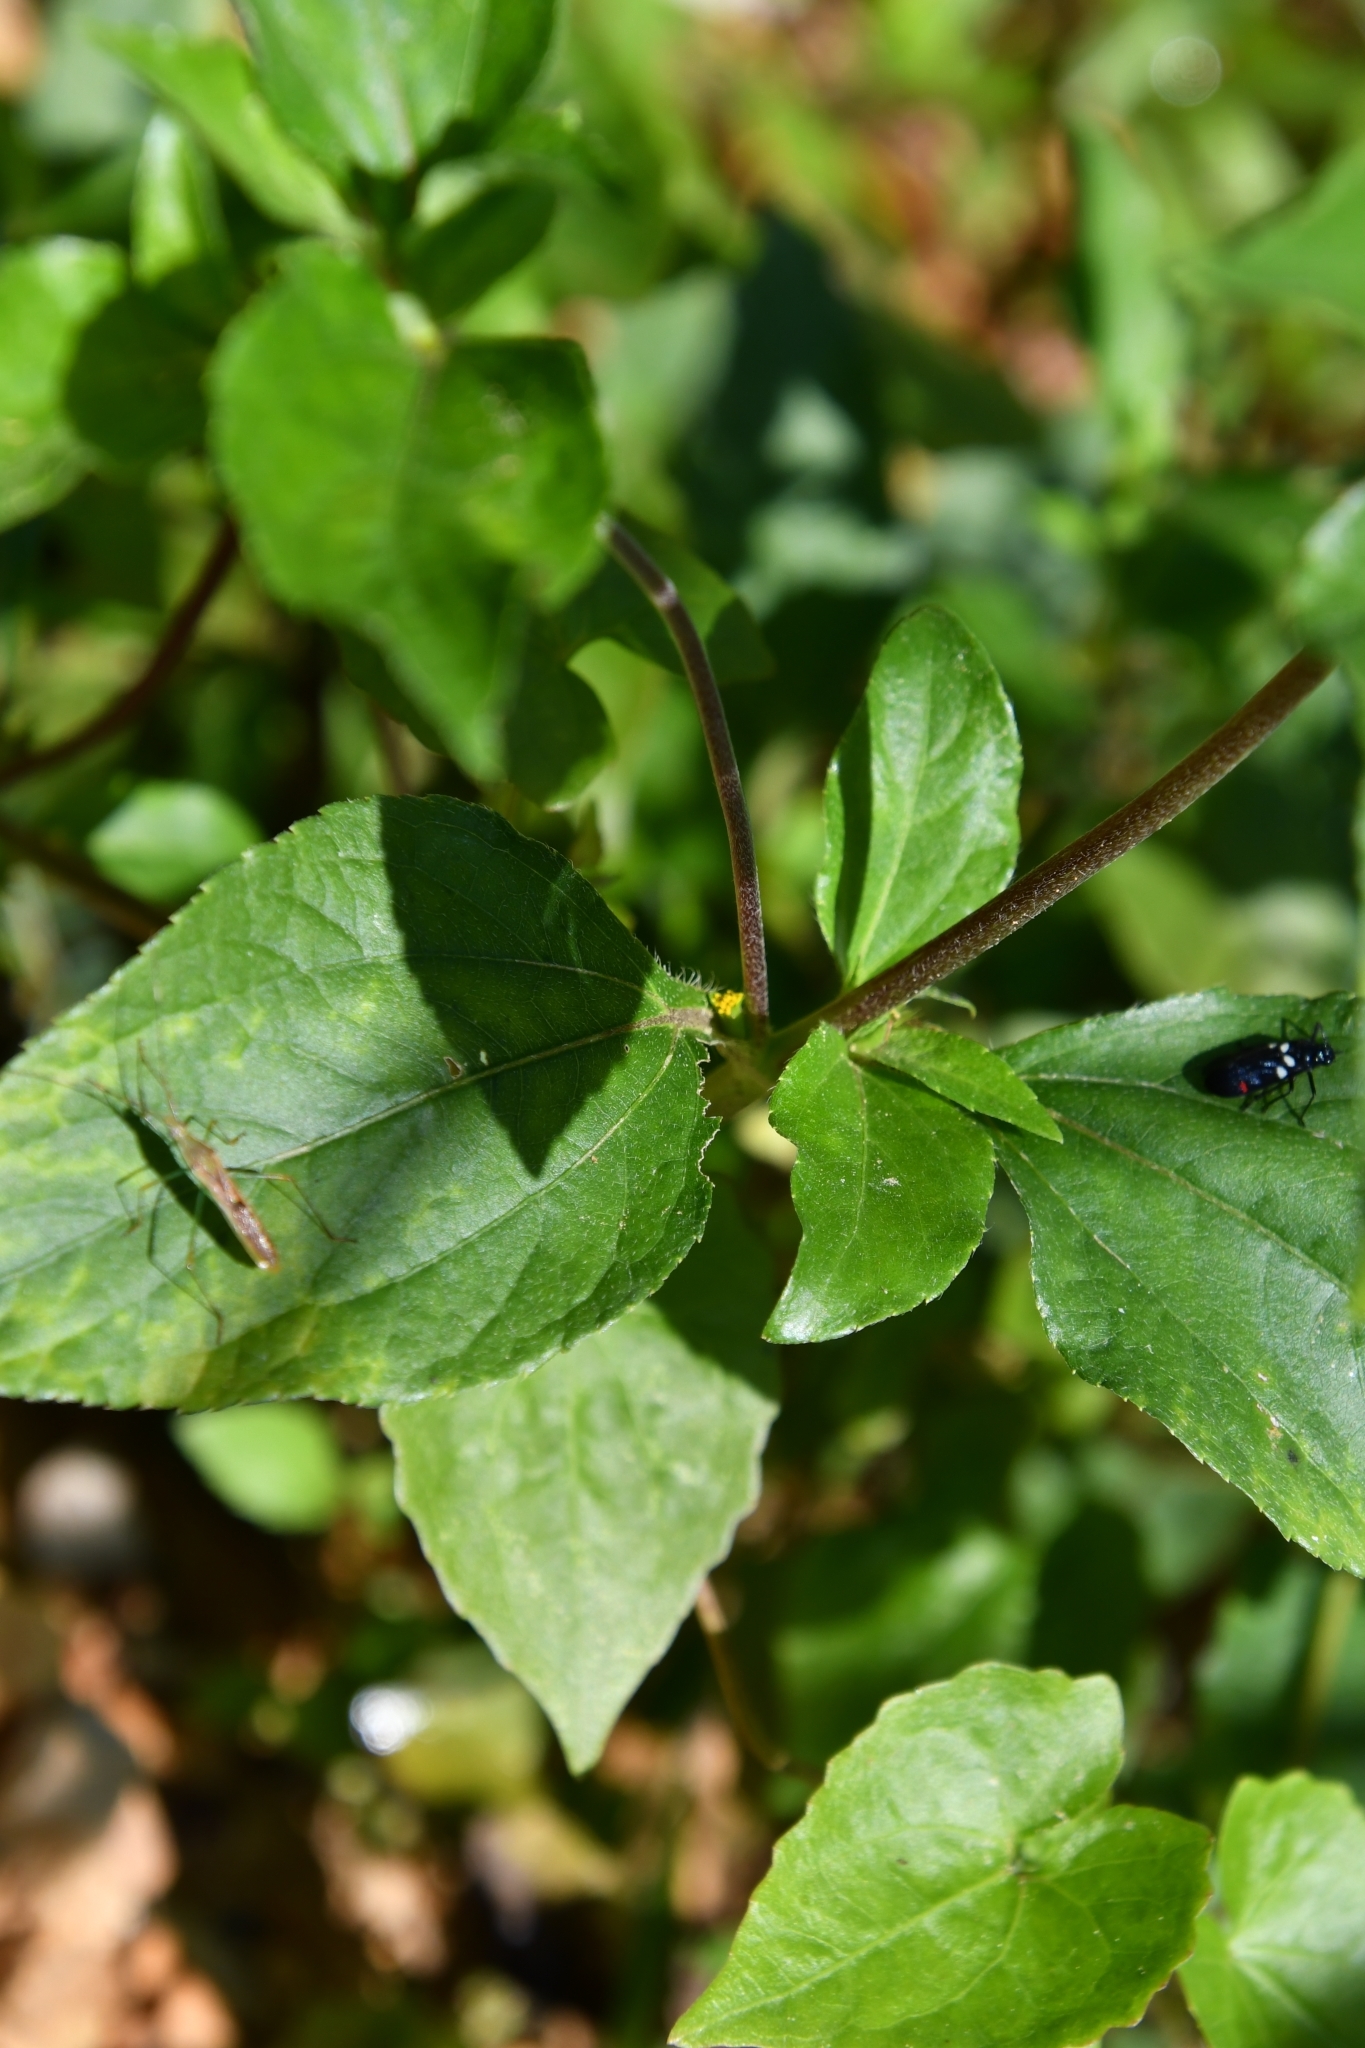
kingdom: Plantae
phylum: Tracheophyta
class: Magnoliopsida
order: Asterales
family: Asteraceae
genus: Synedrella
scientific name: Synedrella nodiflora
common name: Nodeweed
